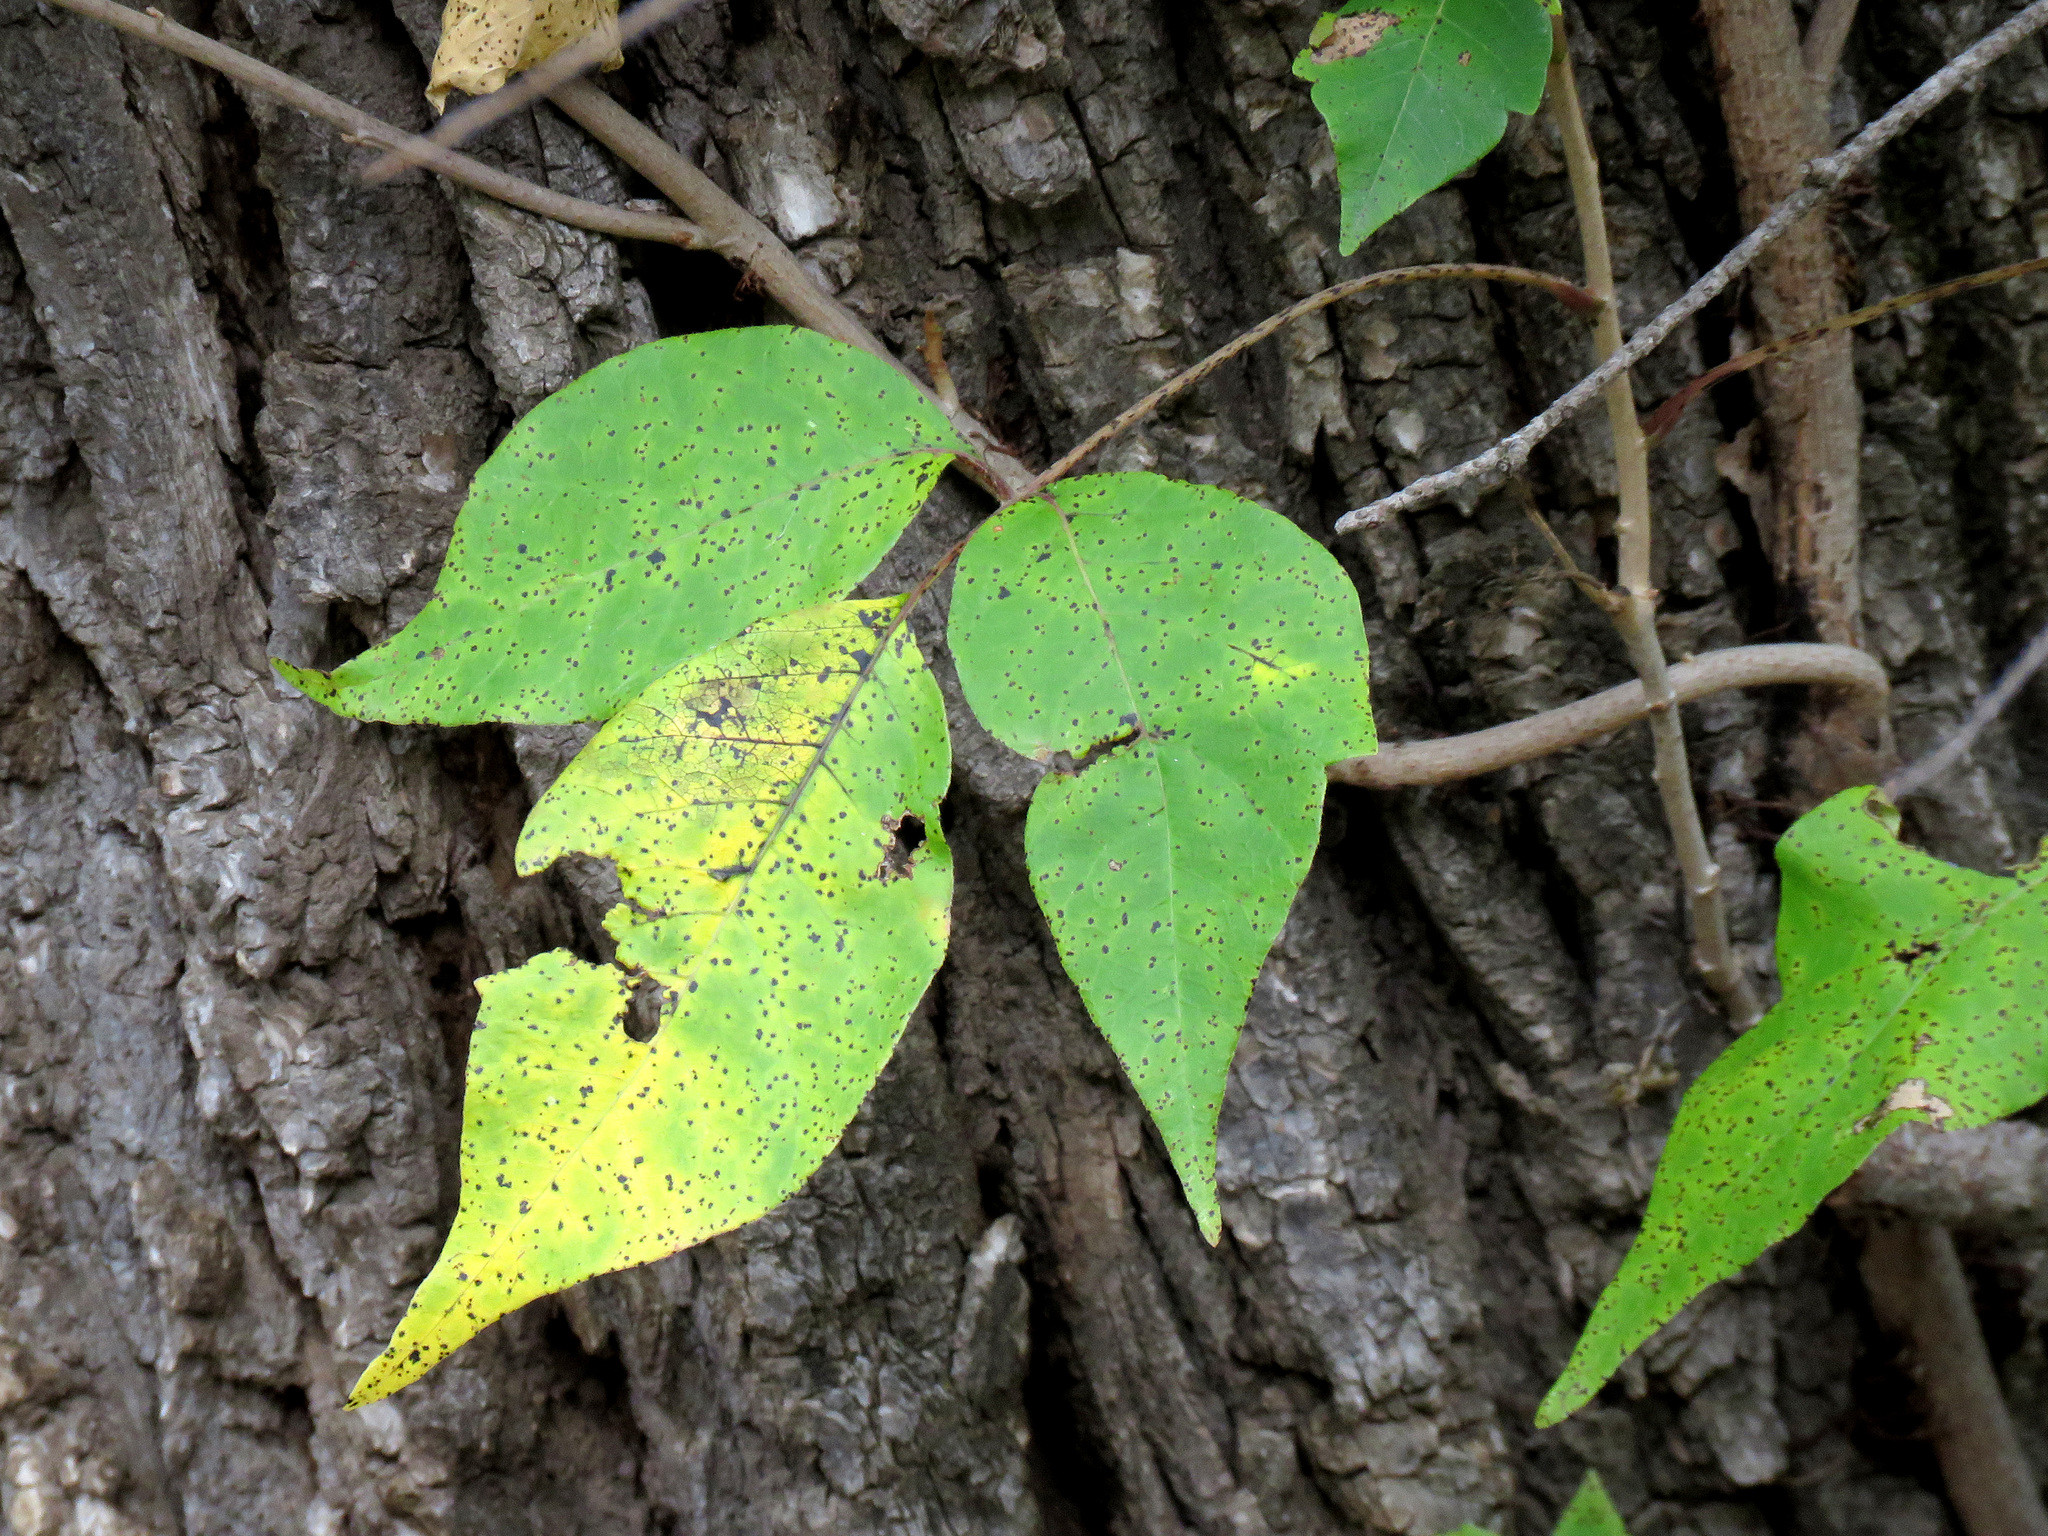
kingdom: Plantae
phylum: Tracheophyta
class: Magnoliopsida
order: Sapindales
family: Anacardiaceae
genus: Toxicodendron
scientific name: Toxicodendron rydbergii
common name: Rydberg's poison-ivy
